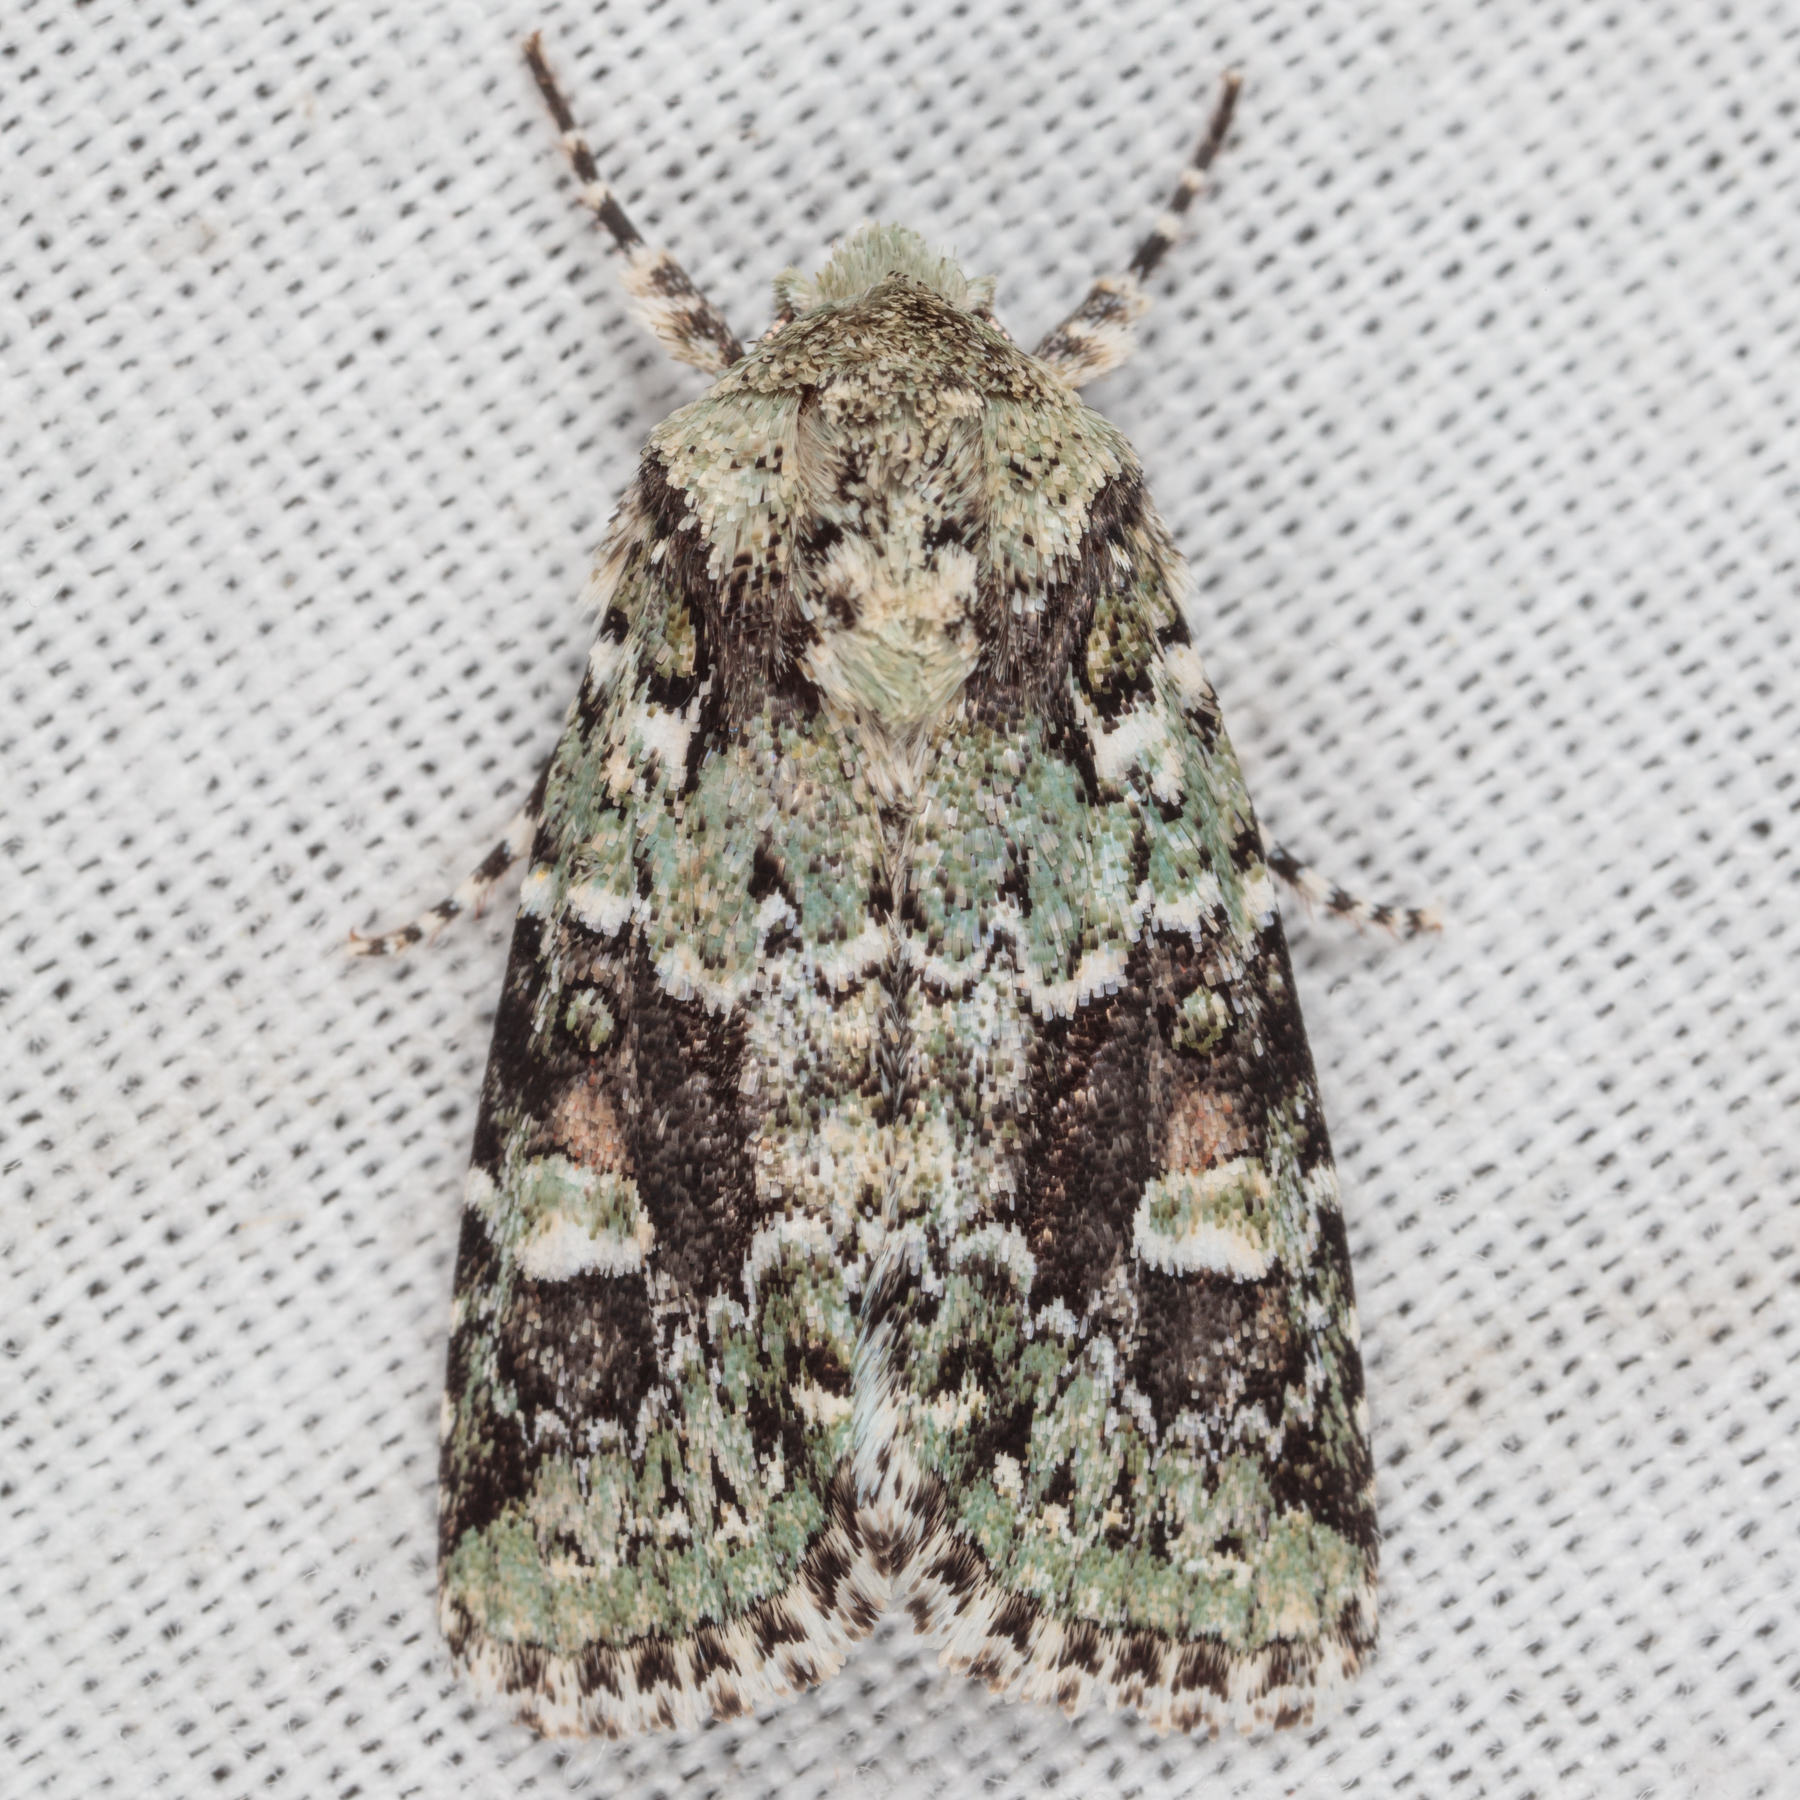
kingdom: Animalia
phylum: Arthropoda
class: Insecta
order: Lepidoptera
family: Noctuidae
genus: Lacinipolia
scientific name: Lacinipolia laudabilis
